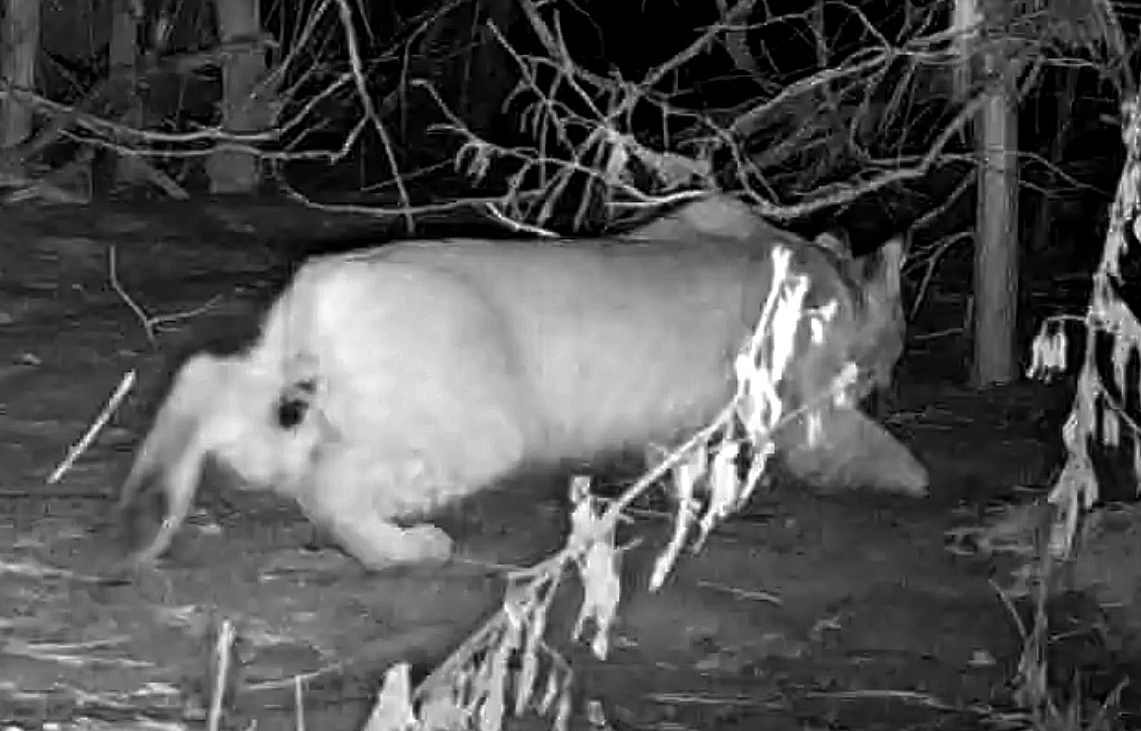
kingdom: Animalia
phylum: Chordata
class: Mammalia
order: Carnivora
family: Felidae
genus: Lynx
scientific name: Lynx rufus
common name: Bobcat
